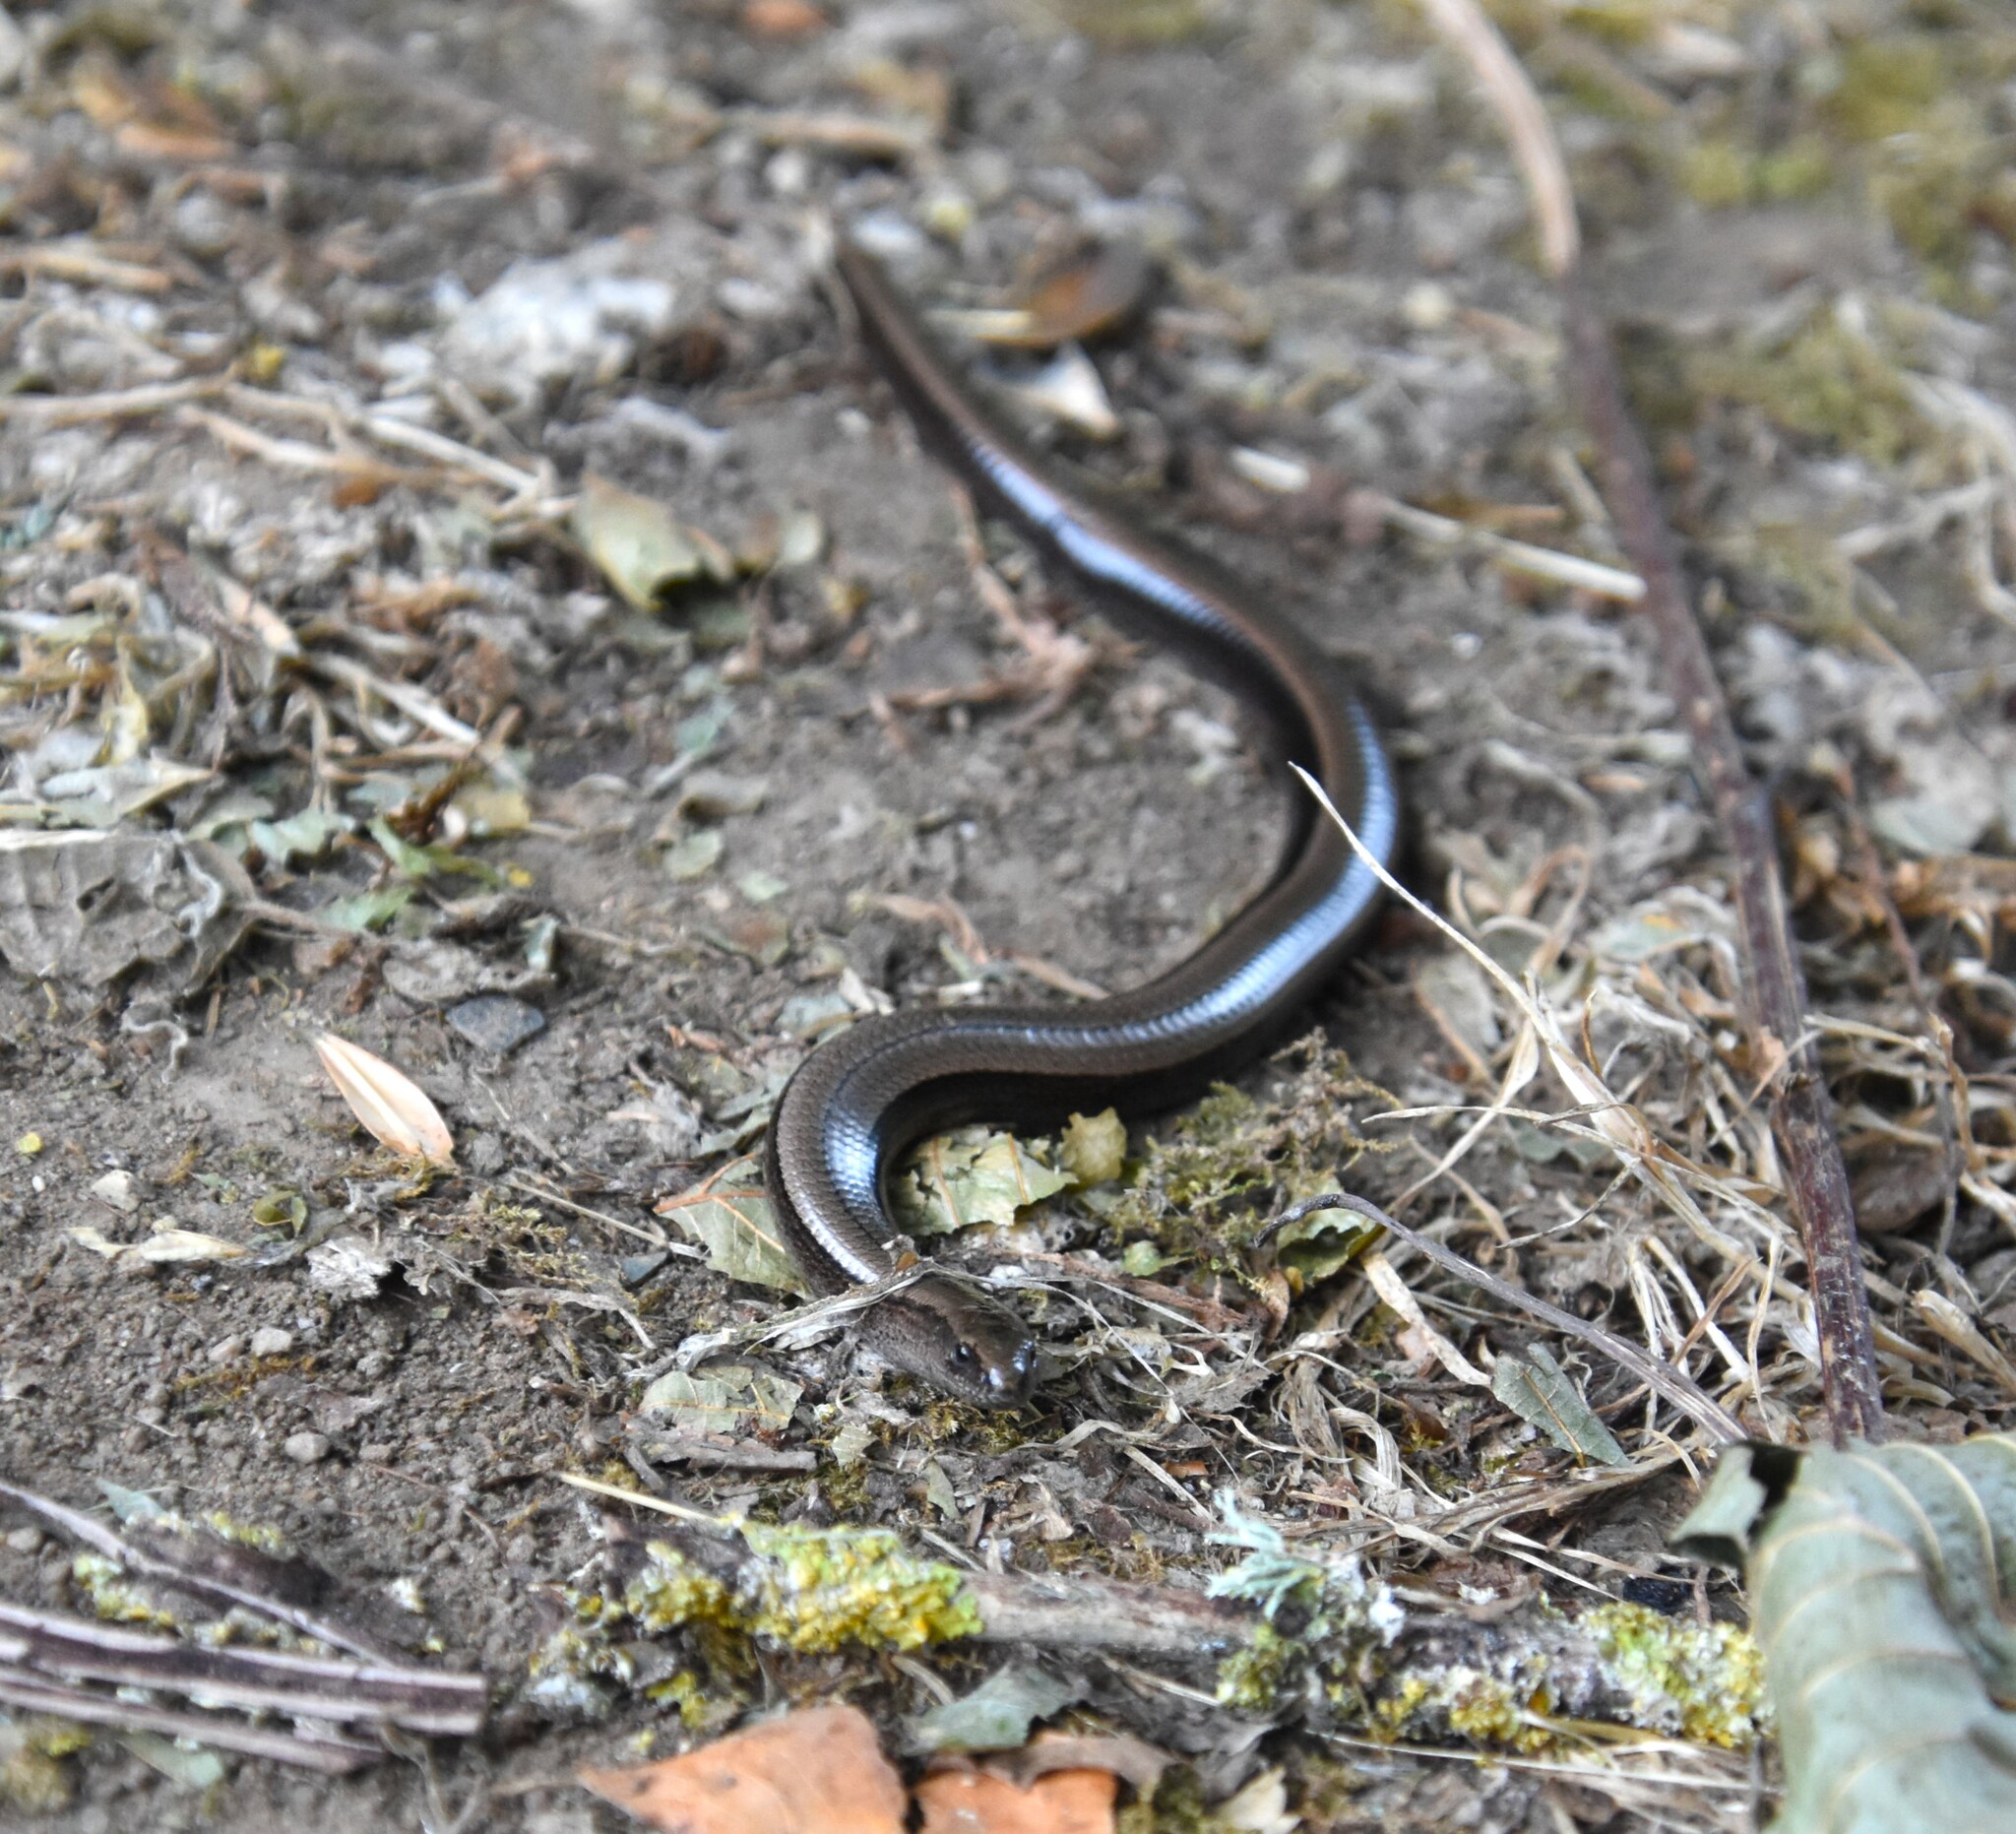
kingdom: Animalia
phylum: Chordata
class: Squamata
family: Anguidae
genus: Anguis
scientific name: Anguis fragilis
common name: Slow worm
